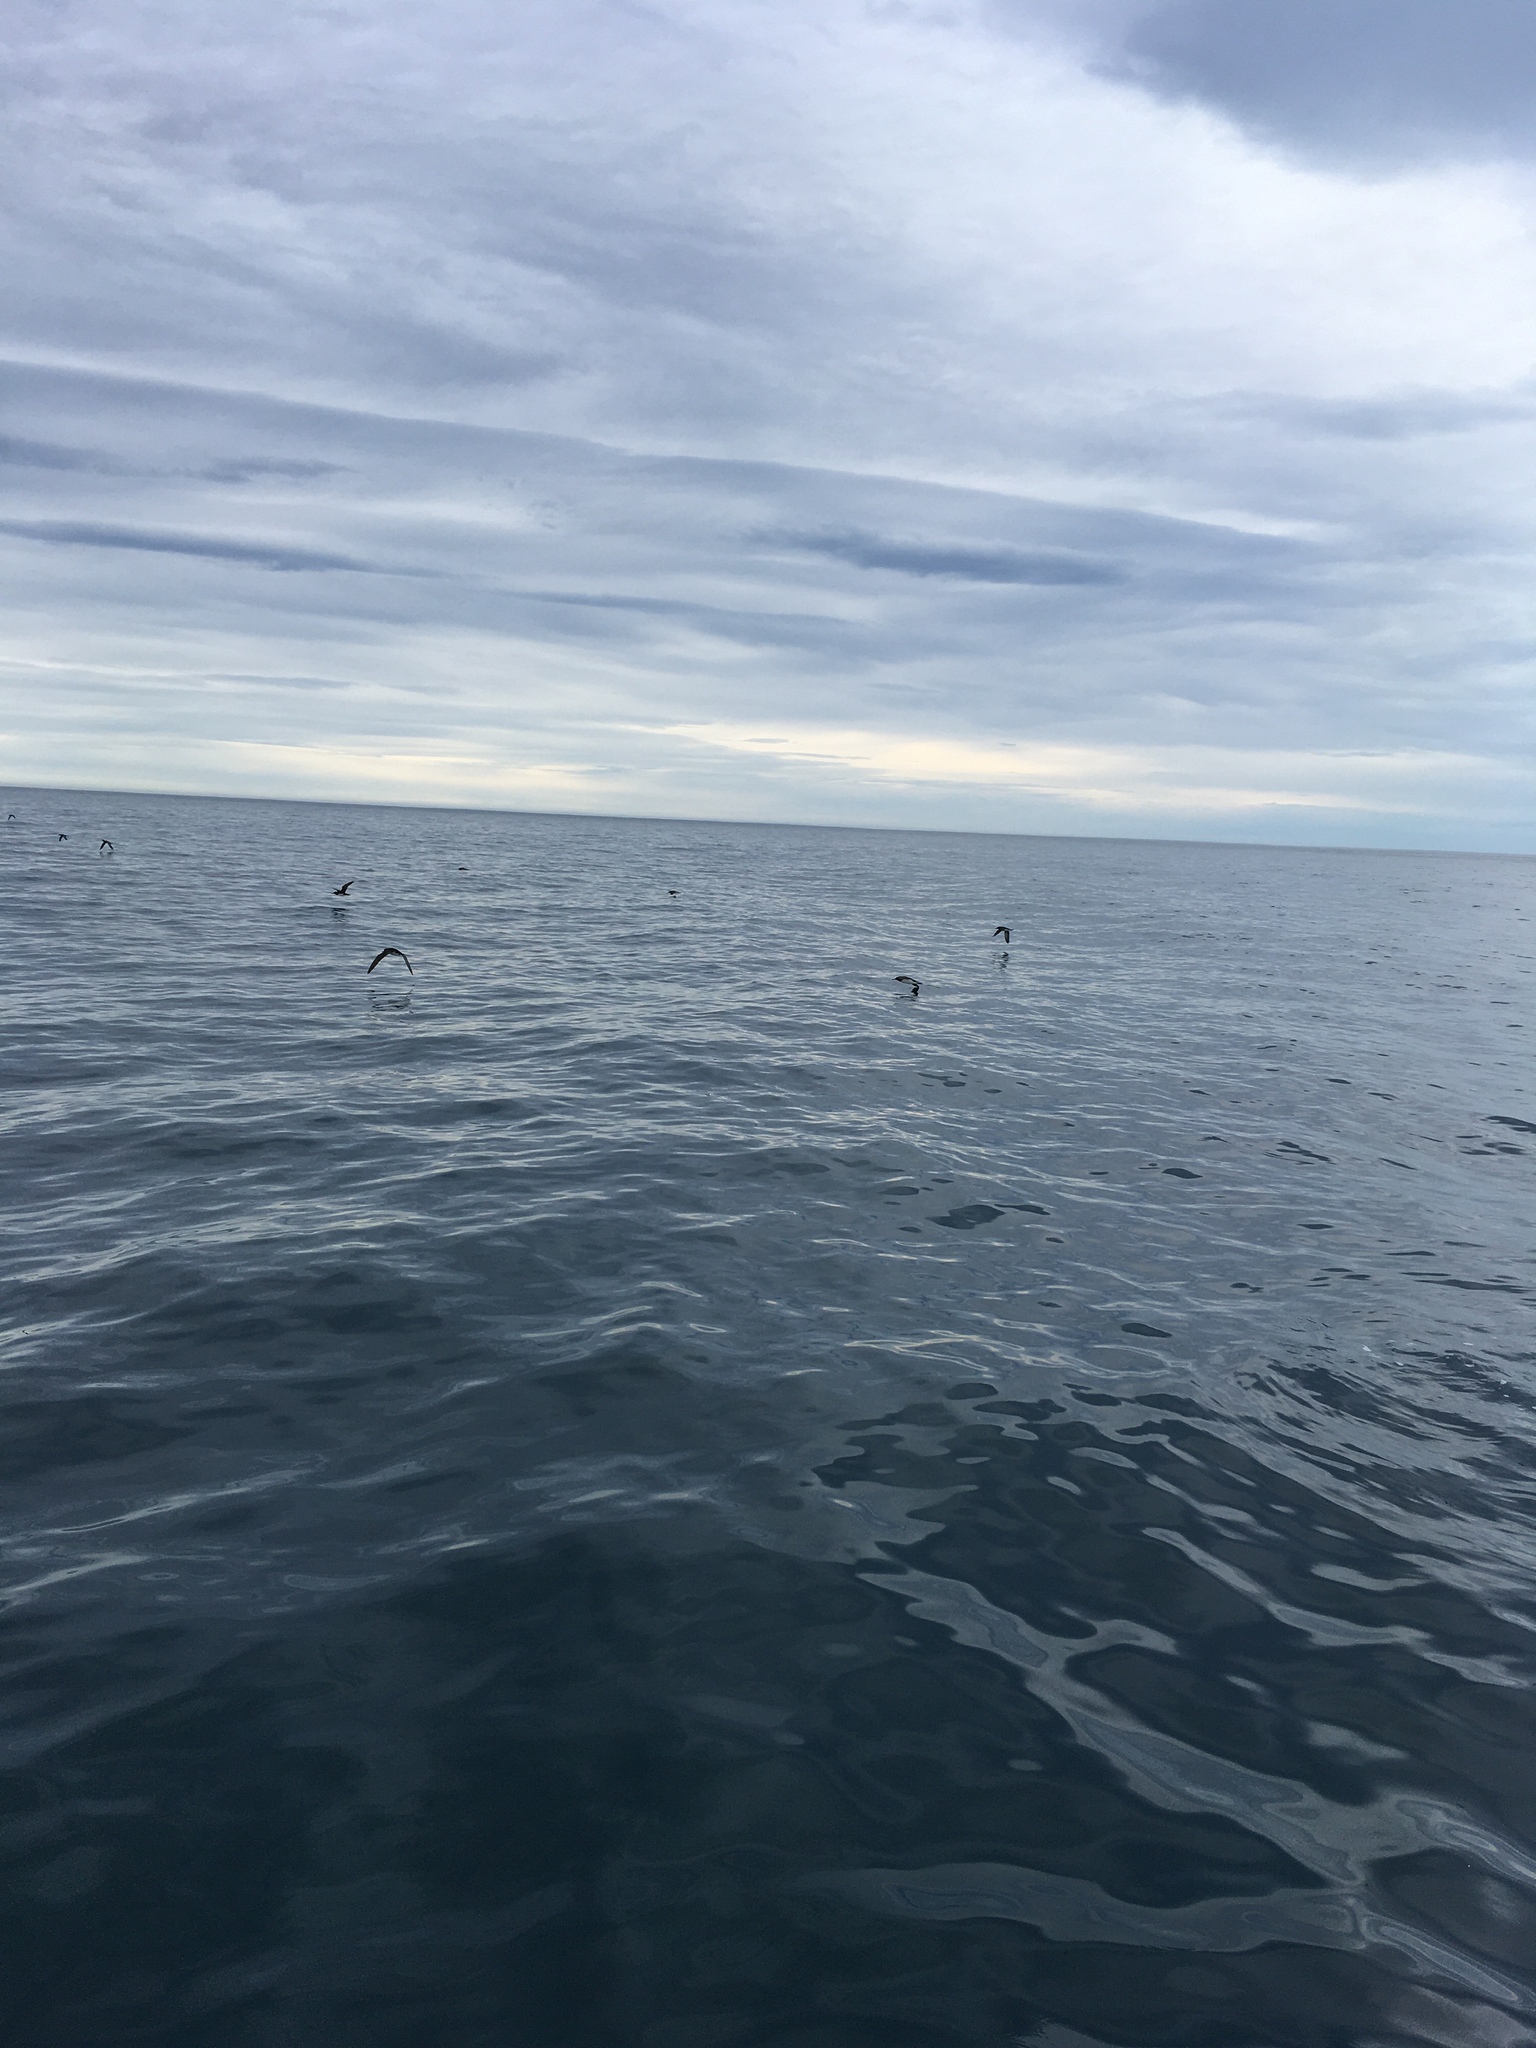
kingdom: Animalia
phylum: Chordata
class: Aves
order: Procellariiformes
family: Procellariidae
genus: Puffinus
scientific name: Puffinus huttoni
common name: Hutton's shearwater
